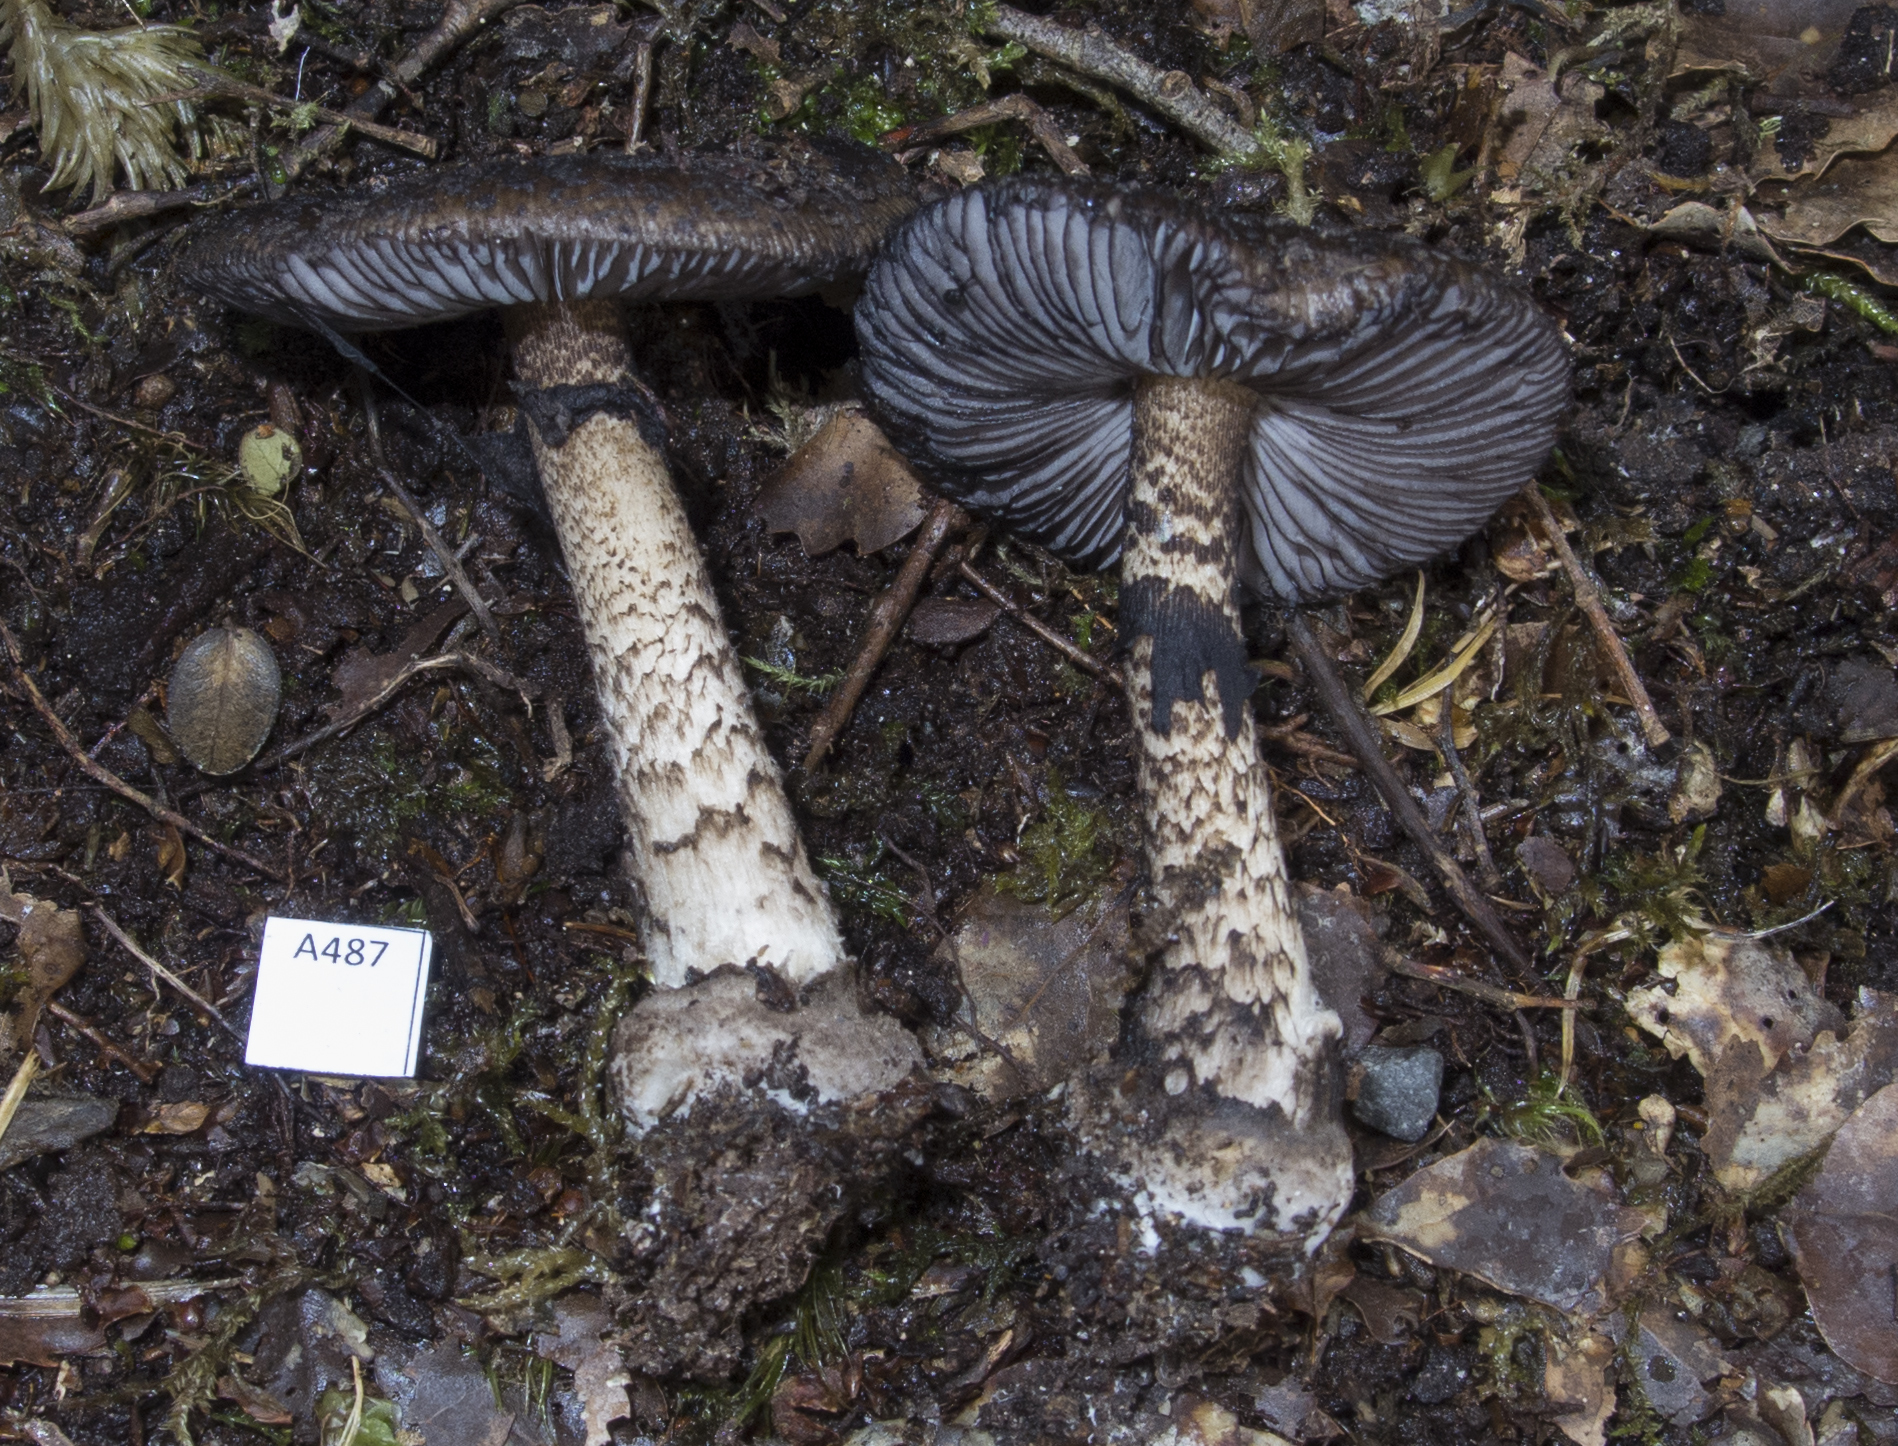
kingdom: Fungi
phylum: Basidiomycota
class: Agaricomycetes
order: Agaricales
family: Amanitaceae
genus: Amanita
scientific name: Amanita nigrescens
